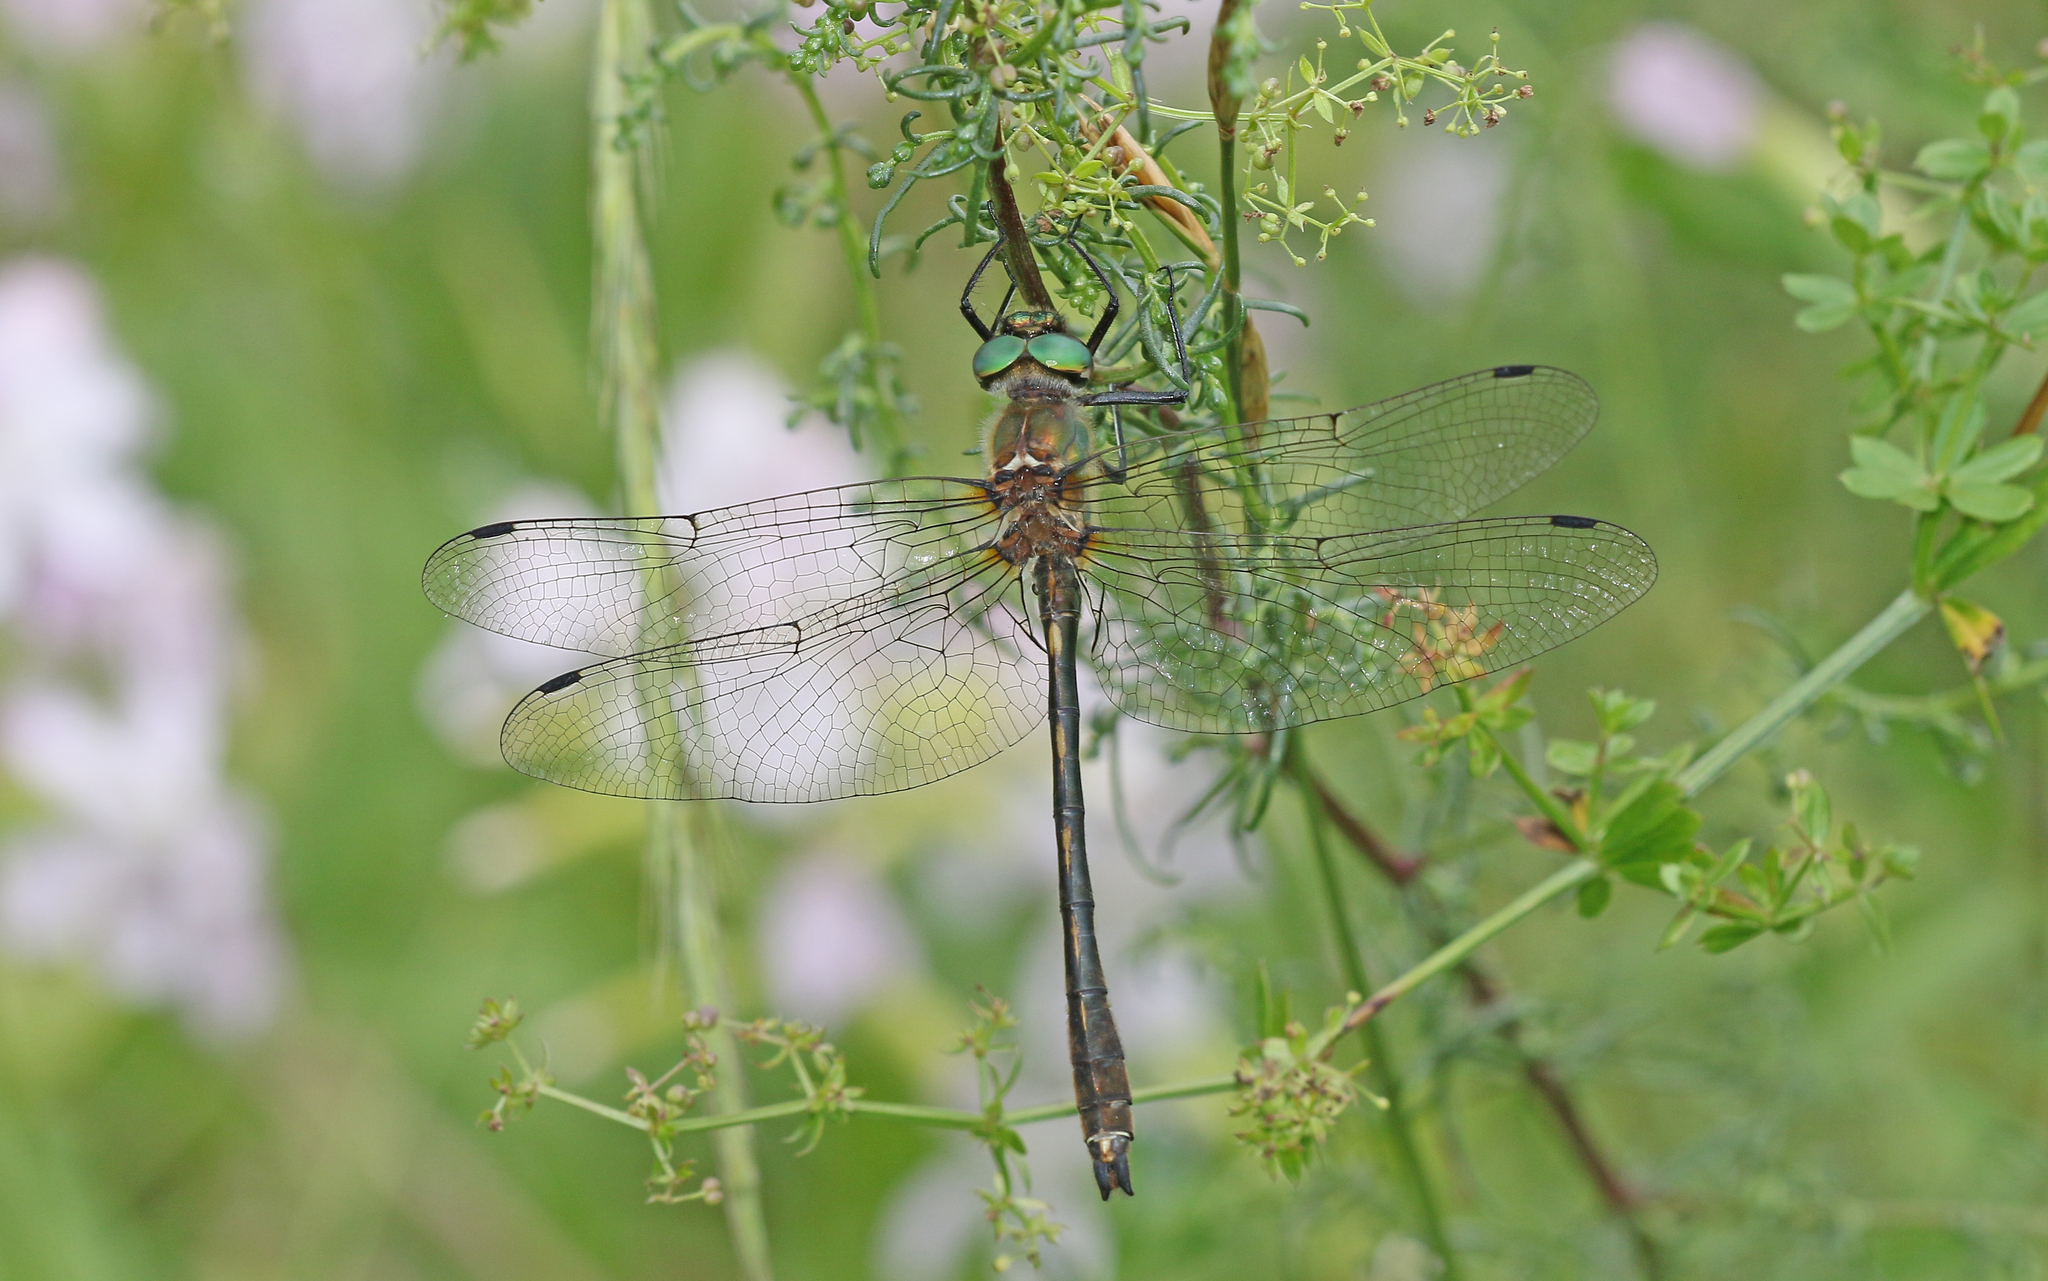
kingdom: Animalia
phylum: Arthropoda
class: Insecta
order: Odonata
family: Corduliidae
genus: Oxygastra
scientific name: Oxygastra curtisii
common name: Orange-spotted emerald
